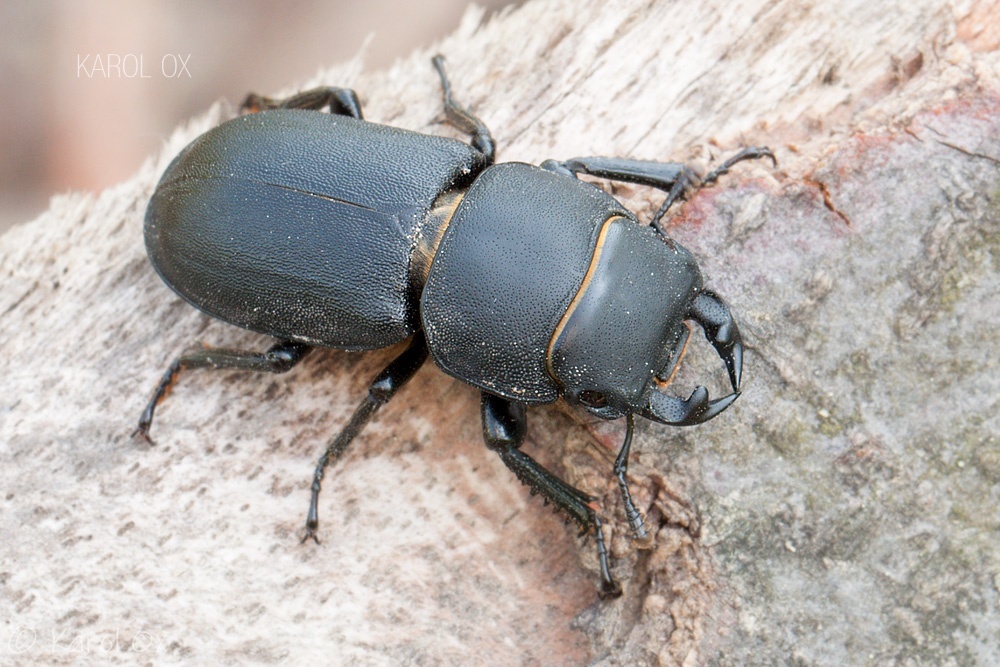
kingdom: Animalia
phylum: Arthropoda
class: Insecta
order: Coleoptera
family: Lucanidae
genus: Dorcus
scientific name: Dorcus parallelipipedus
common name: Lesser stag beetle
